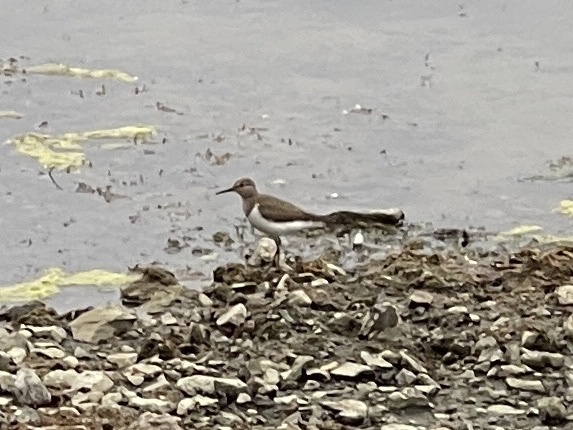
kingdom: Animalia
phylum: Chordata
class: Aves
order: Charadriiformes
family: Scolopacidae
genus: Actitis
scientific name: Actitis hypoleucos
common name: Common sandpiper
